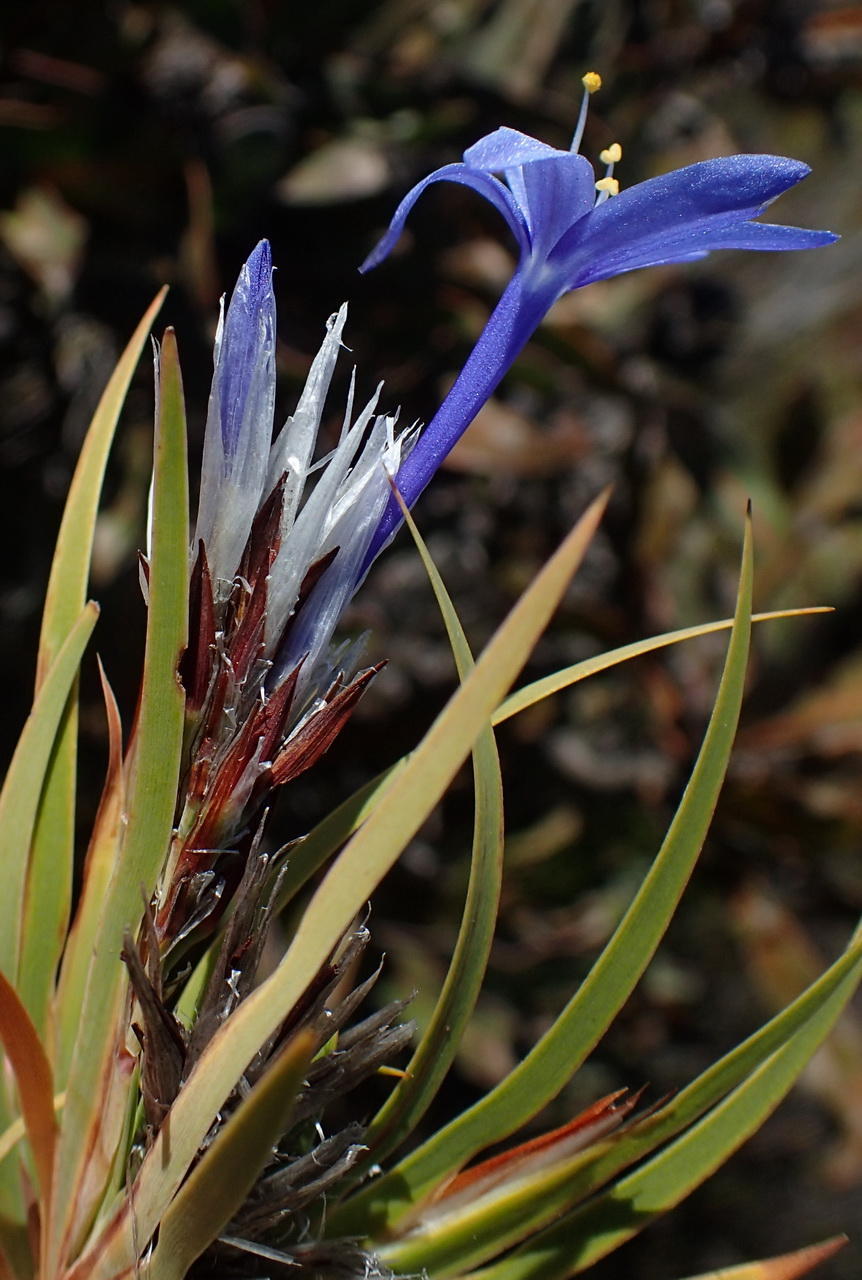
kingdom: Plantae
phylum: Tracheophyta
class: Liliopsida
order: Asparagales
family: Iridaceae
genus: Nivenia
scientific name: Nivenia inaequalis
